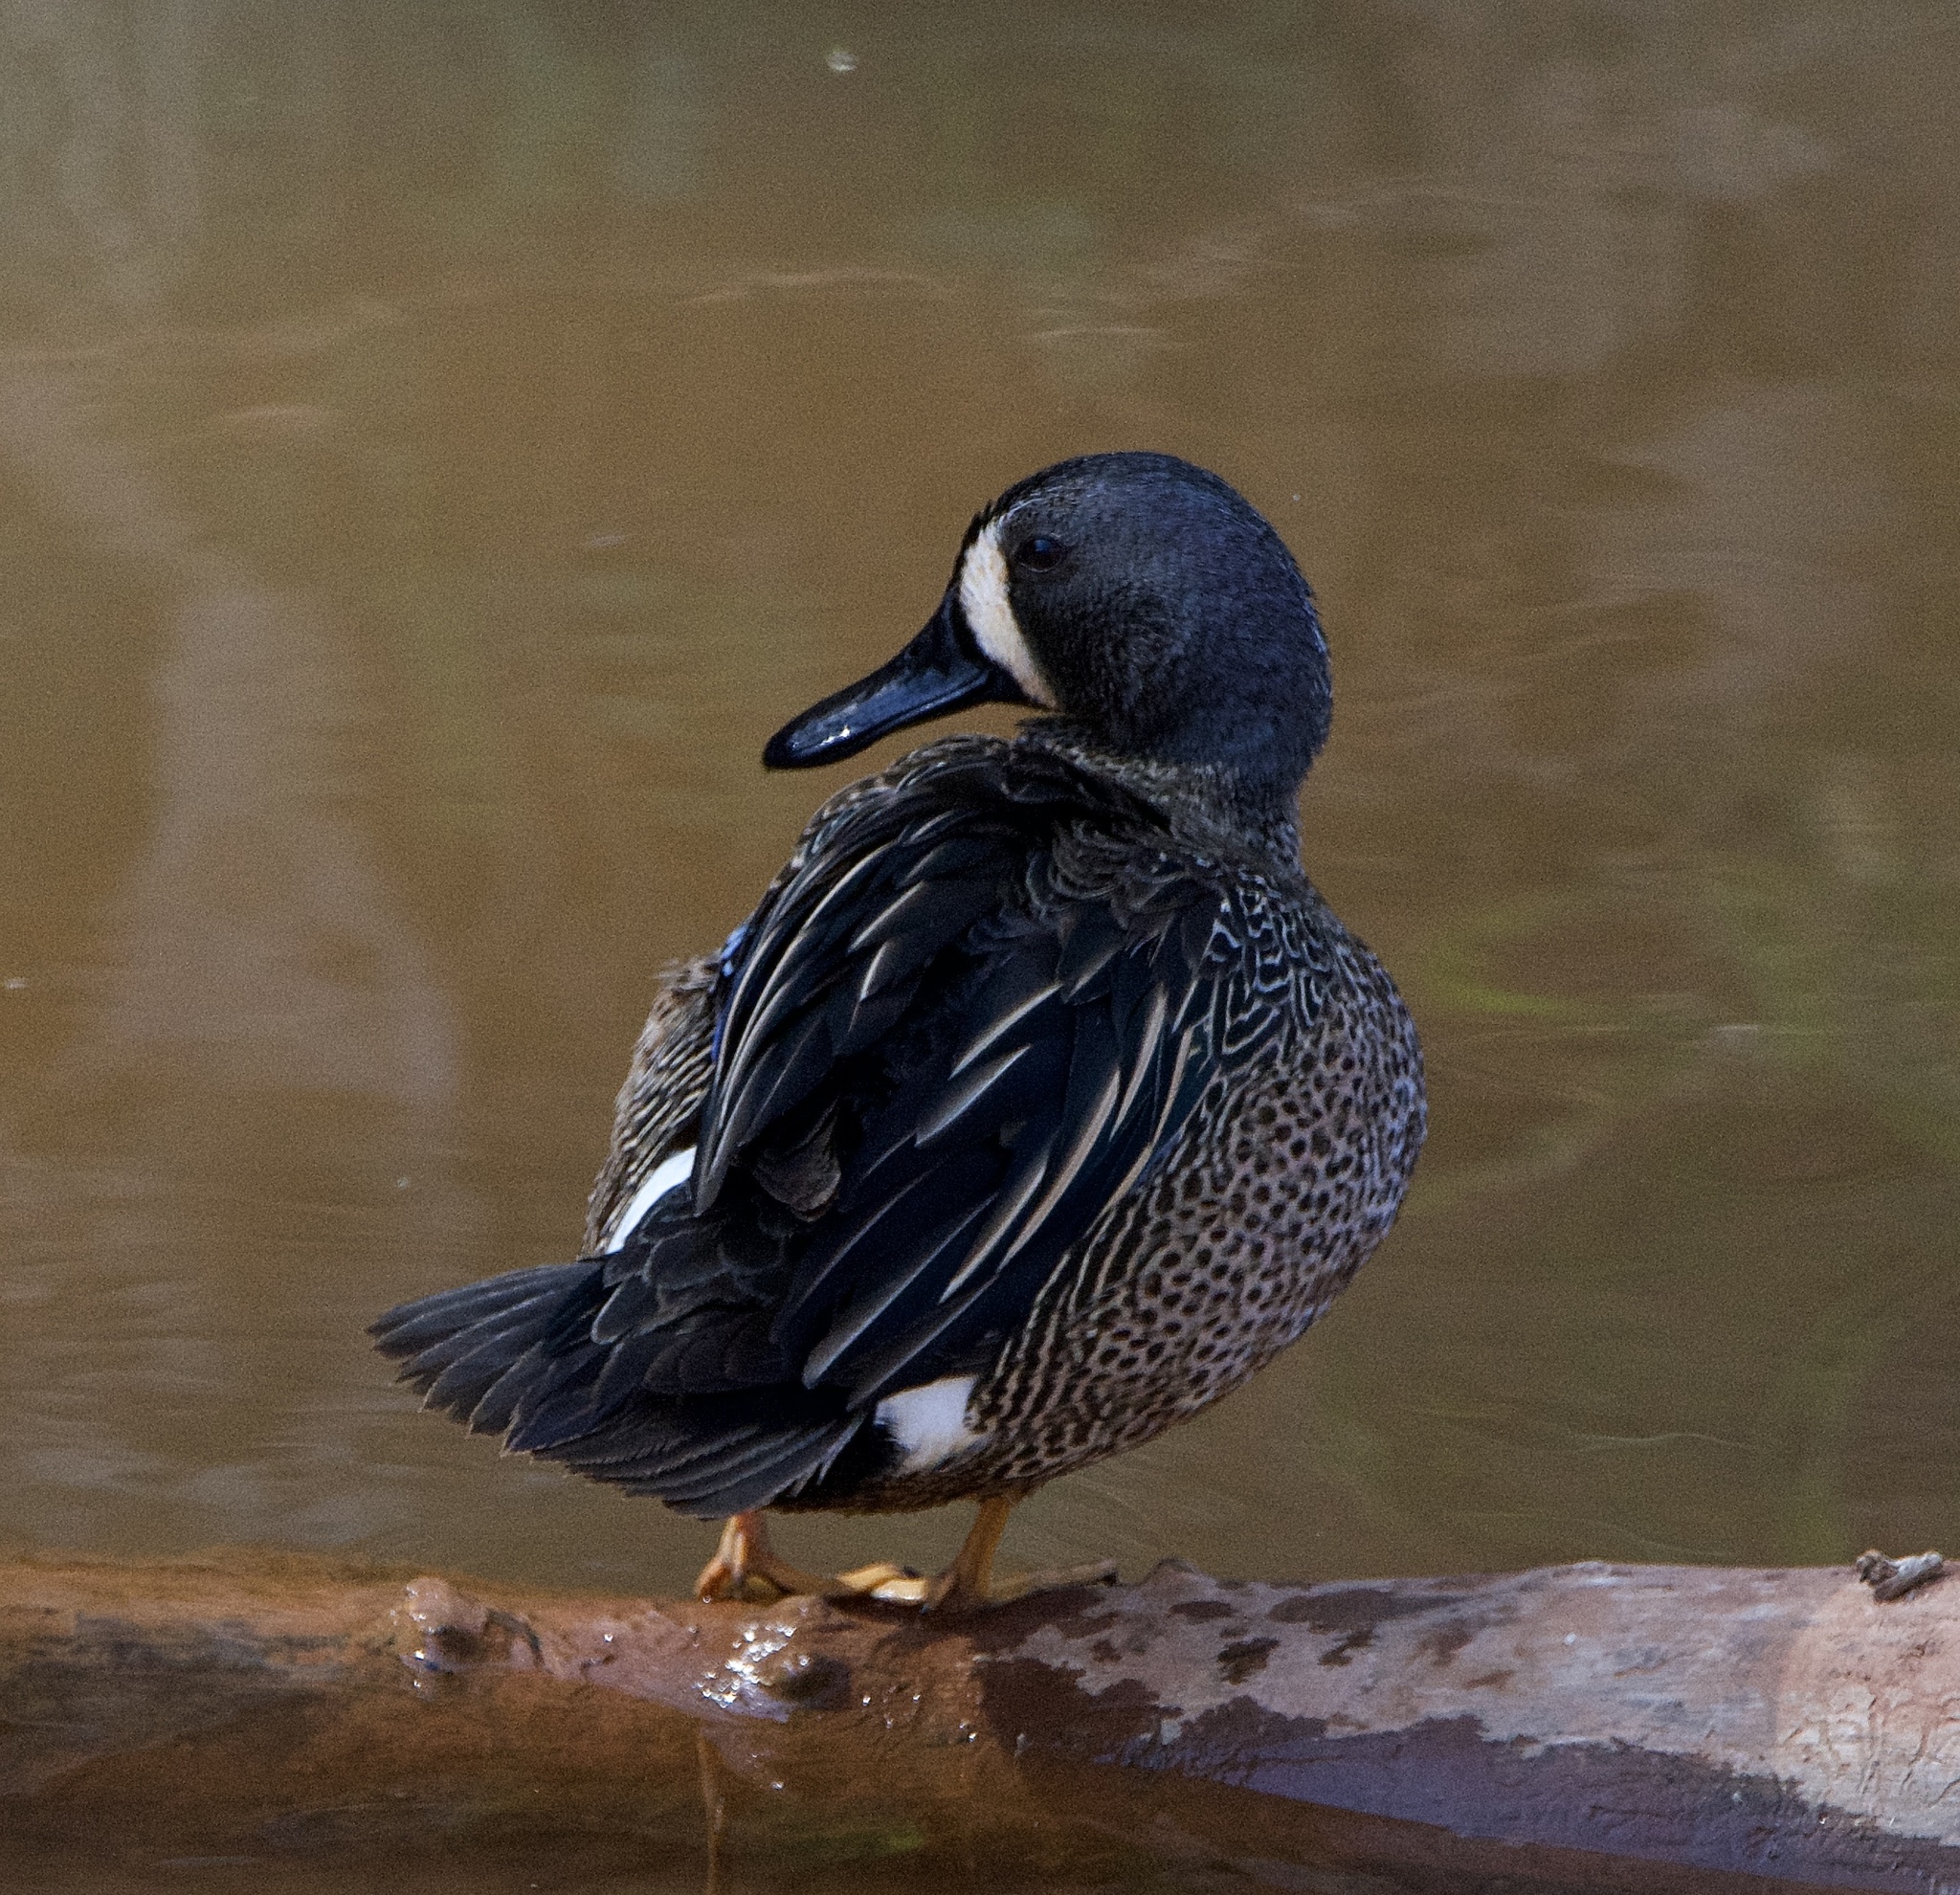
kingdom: Animalia
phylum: Chordata
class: Aves
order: Anseriformes
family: Anatidae
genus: Spatula
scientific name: Spatula discors
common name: Blue-winged teal
